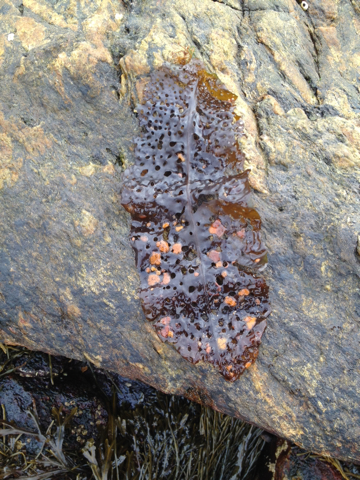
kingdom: Chromista
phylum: Ochrophyta
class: Phaeophyceae
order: Laminariales
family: Costariaceae
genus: Agarum
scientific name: Agarum clathratum
